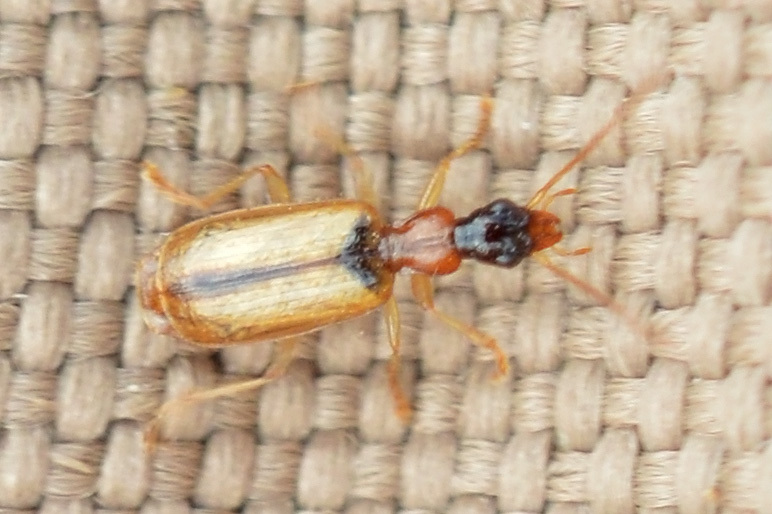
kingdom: Animalia
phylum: Arthropoda
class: Insecta
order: Coleoptera
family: Carabidae
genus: Demetrias
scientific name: Demetrias atricapillus
